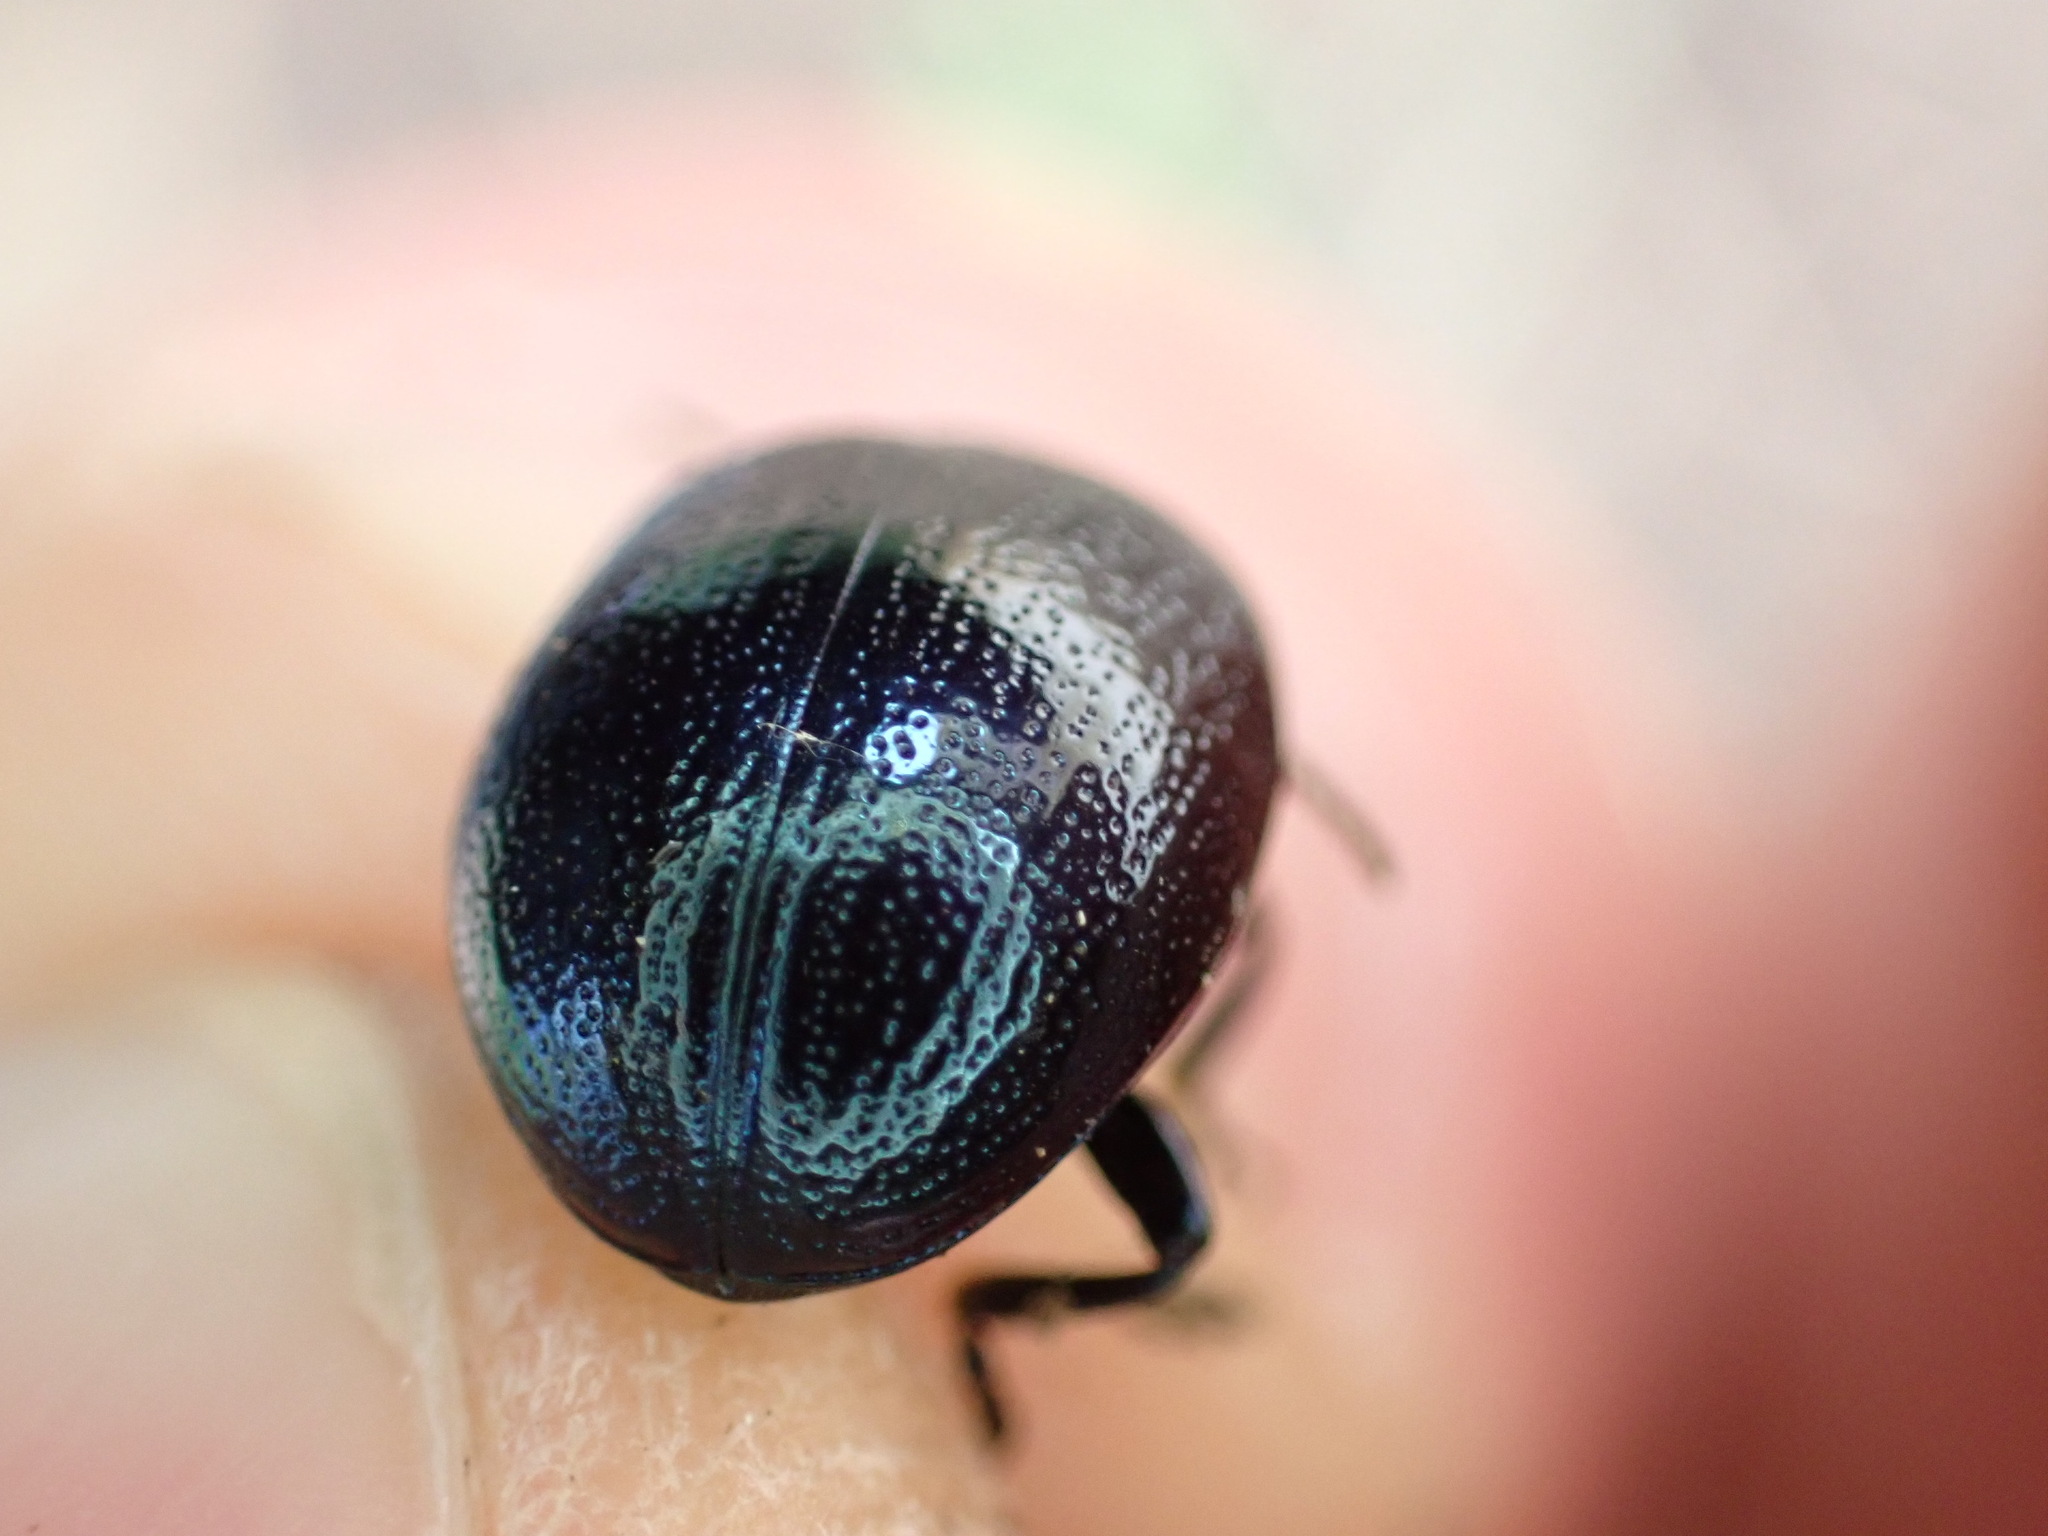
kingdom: Animalia
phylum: Arthropoda
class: Insecta
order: Coleoptera
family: Chrysomelidae
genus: Chrysolina
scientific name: Chrysolina haemoptera
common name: Plantain leaf beetle
